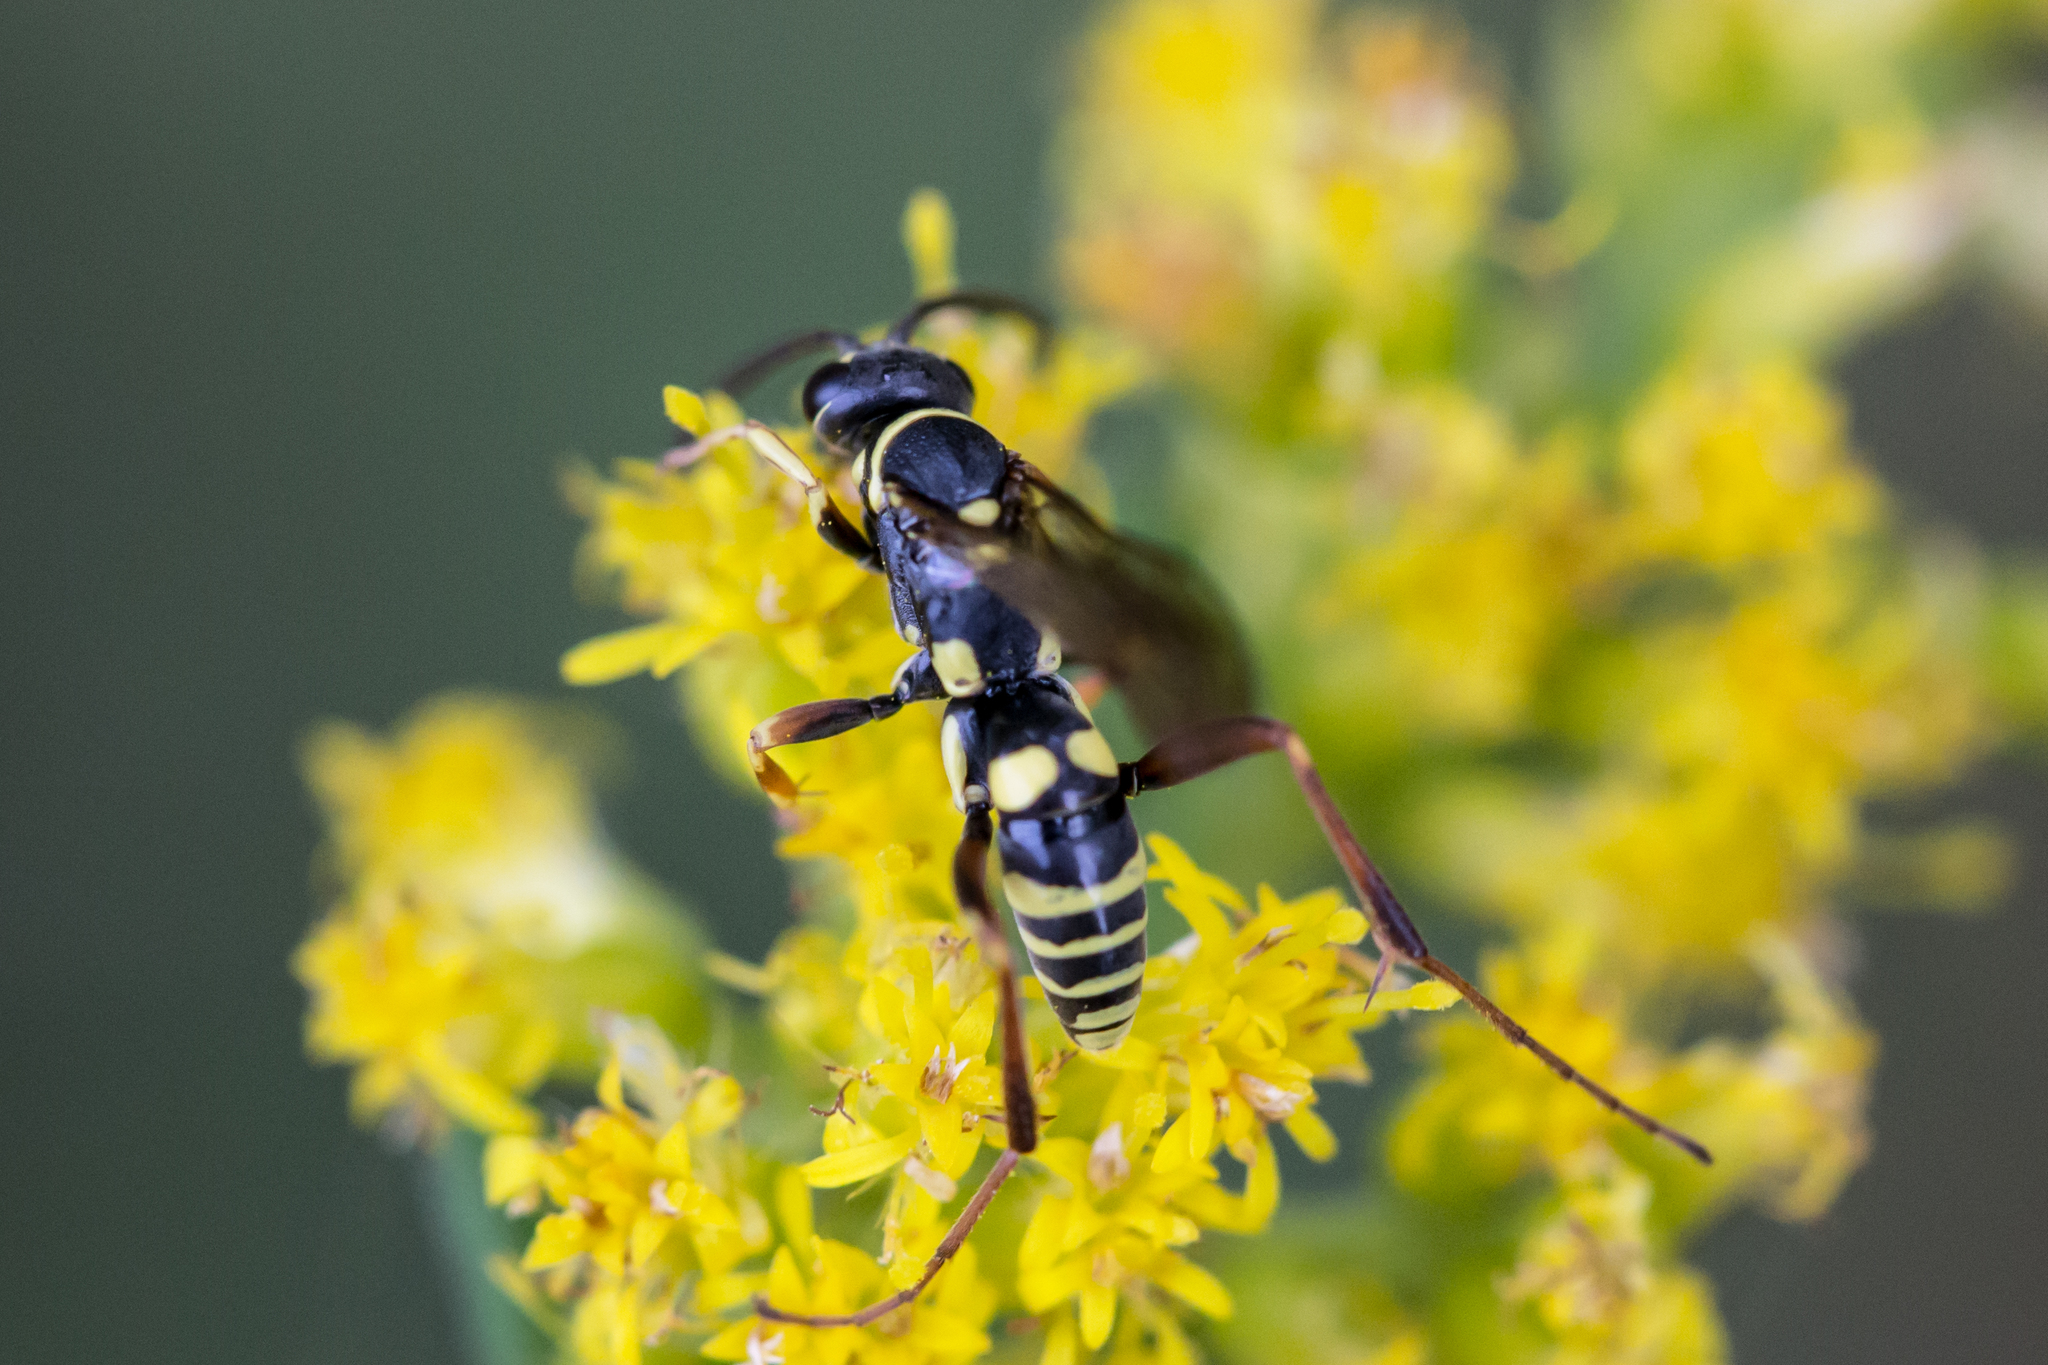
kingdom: Animalia
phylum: Arthropoda
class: Insecta
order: Hymenoptera
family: Pompilidae
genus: Ceropales
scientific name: Ceropales maculata
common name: Spider wasp
